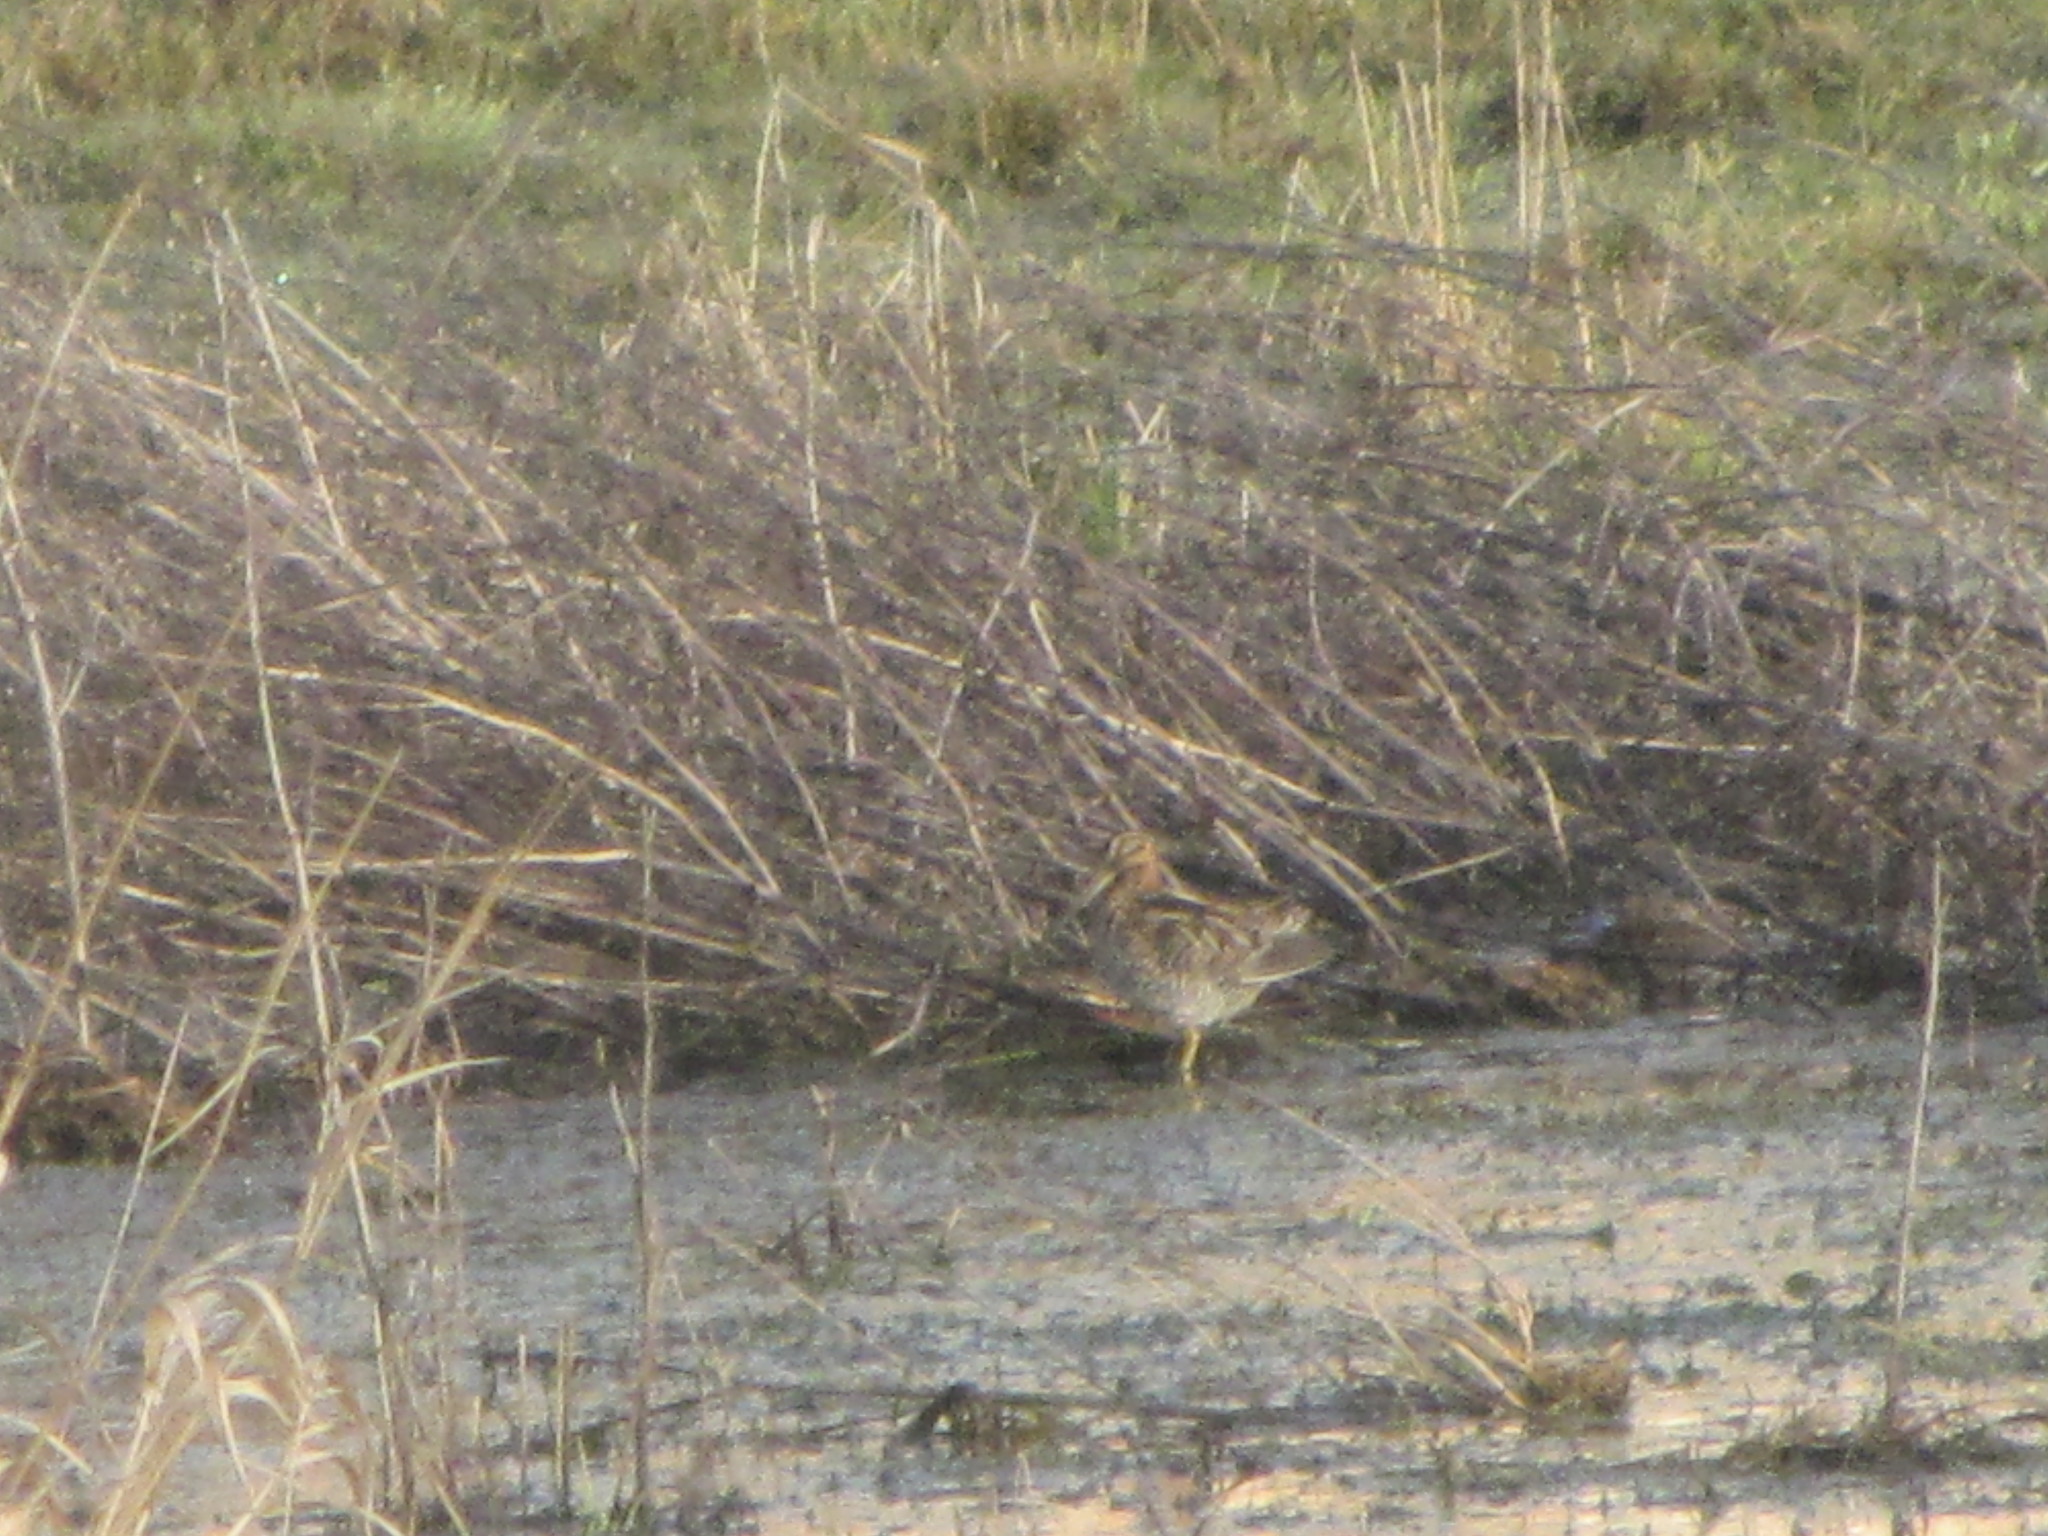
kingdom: Animalia
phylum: Chordata
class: Aves
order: Charadriiformes
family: Scolopacidae
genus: Gallinago
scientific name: Gallinago delicata
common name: Wilson's snipe
